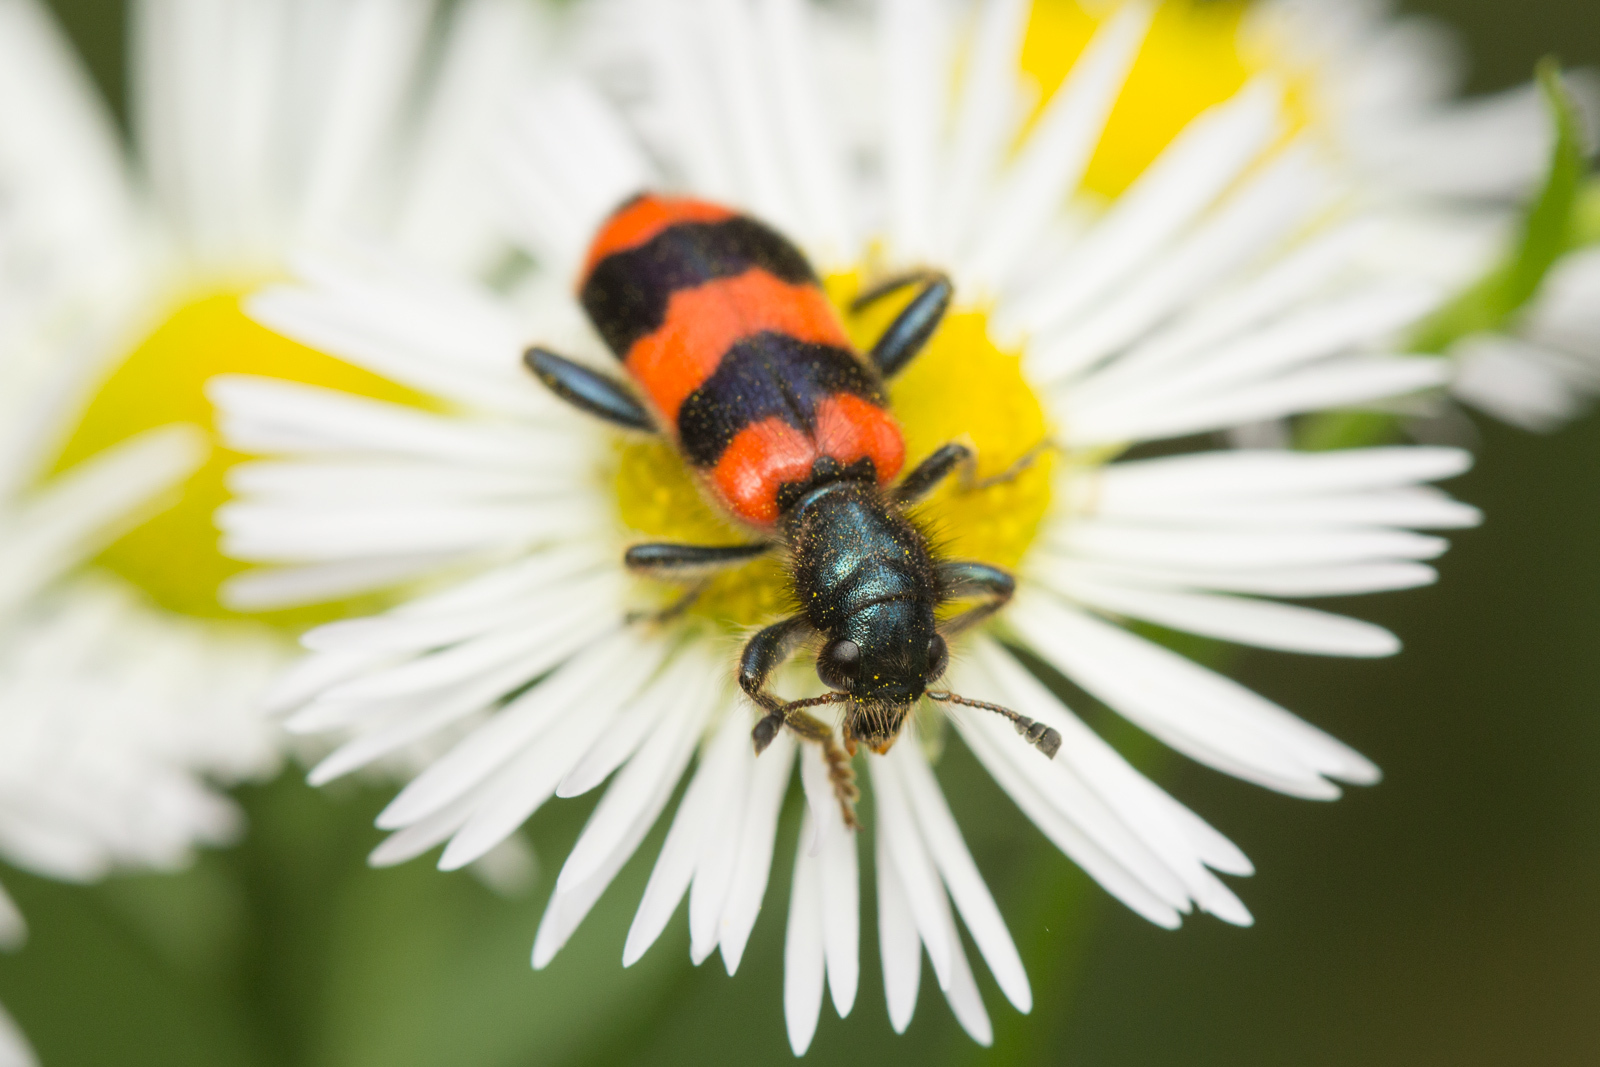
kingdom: Animalia
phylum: Arthropoda
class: Insecta
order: Coleoptera
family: Cleridae
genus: Trichodes
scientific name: Trichodes apiarius
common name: Bee-eating beetle
